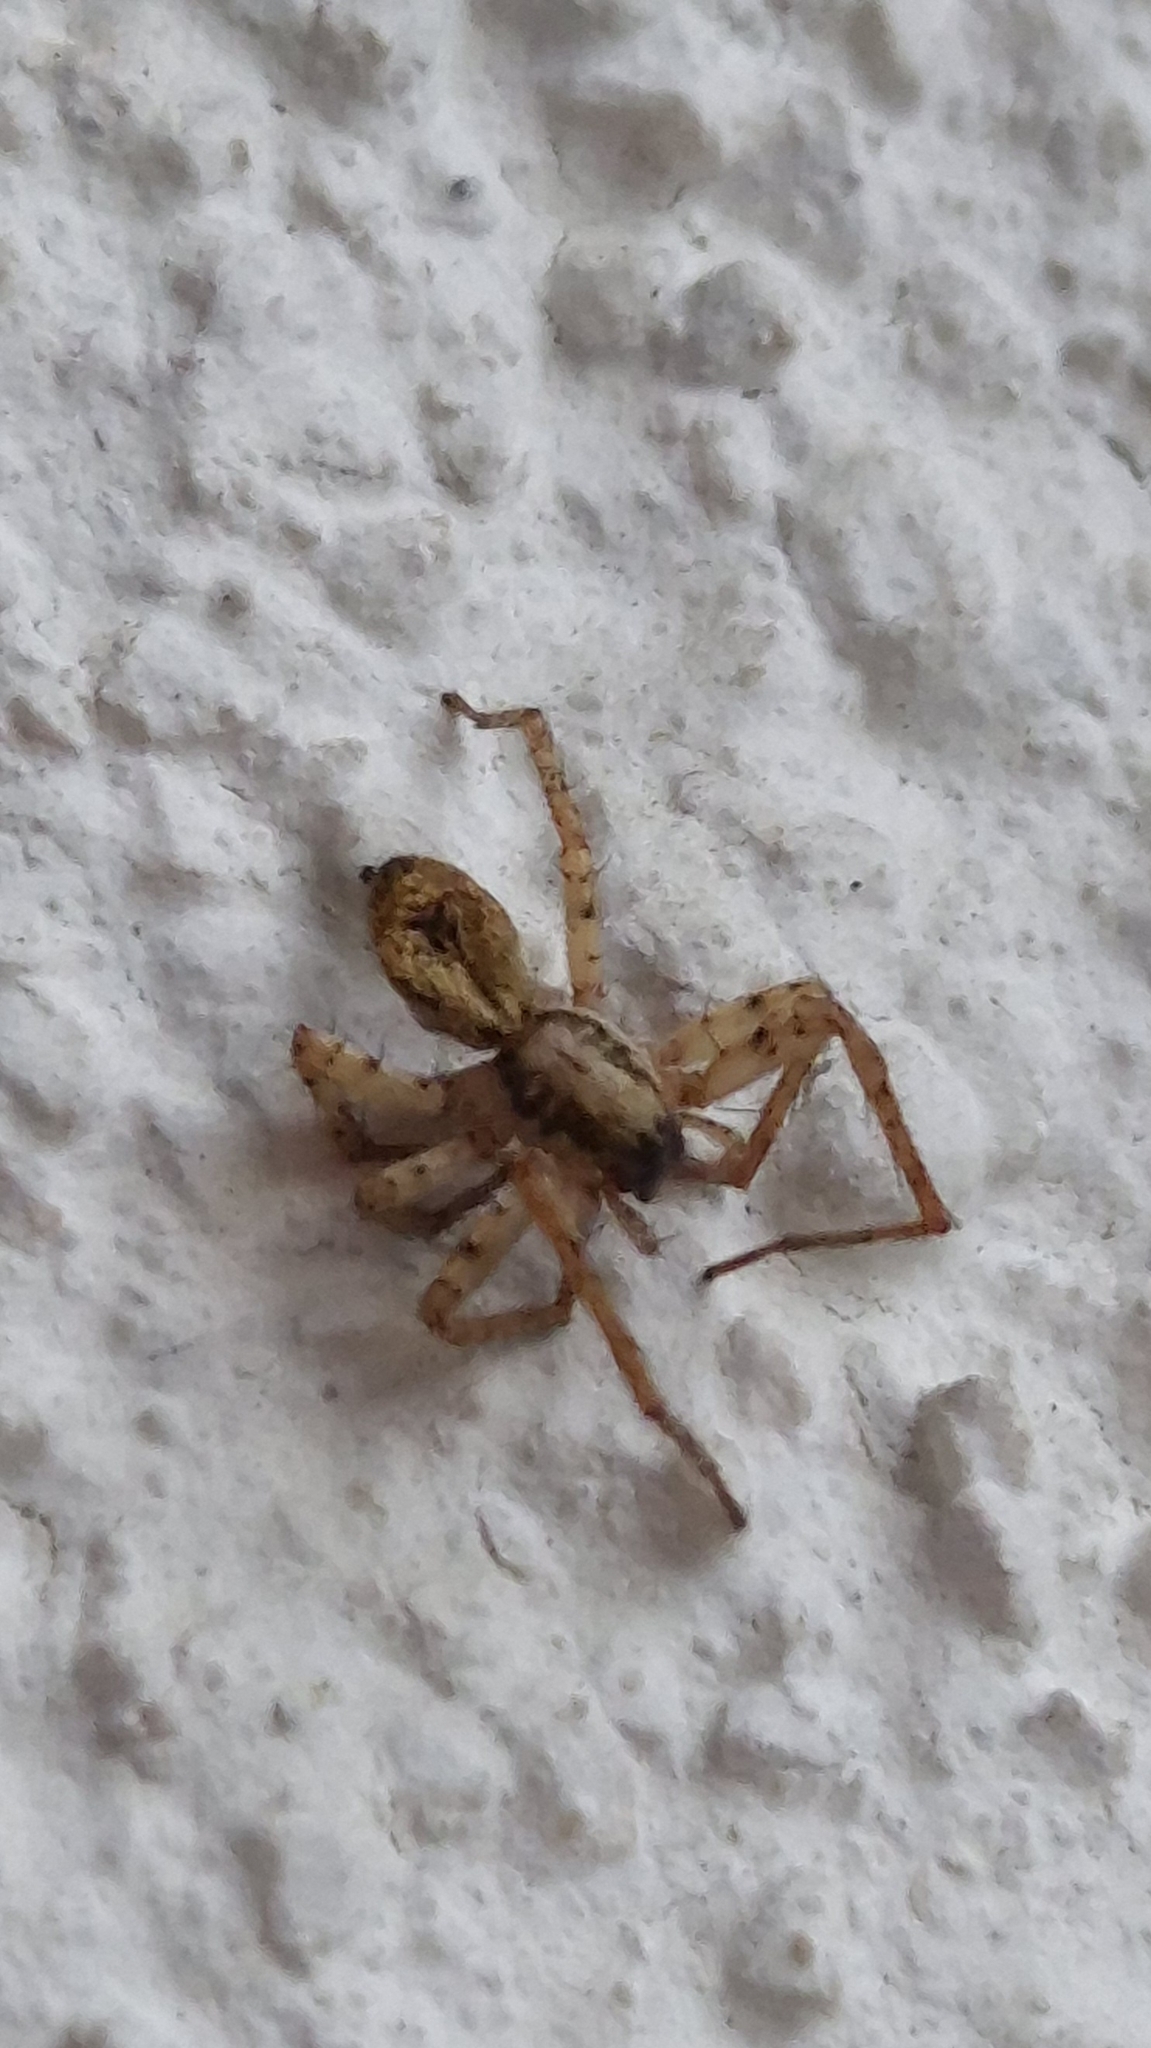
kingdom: Animalia
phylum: Arthropoda
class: Arachnida
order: Araneae
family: Anyphaenidae
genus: Anyphaena
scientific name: Anyphaena accentuata
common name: Buzzing spider
